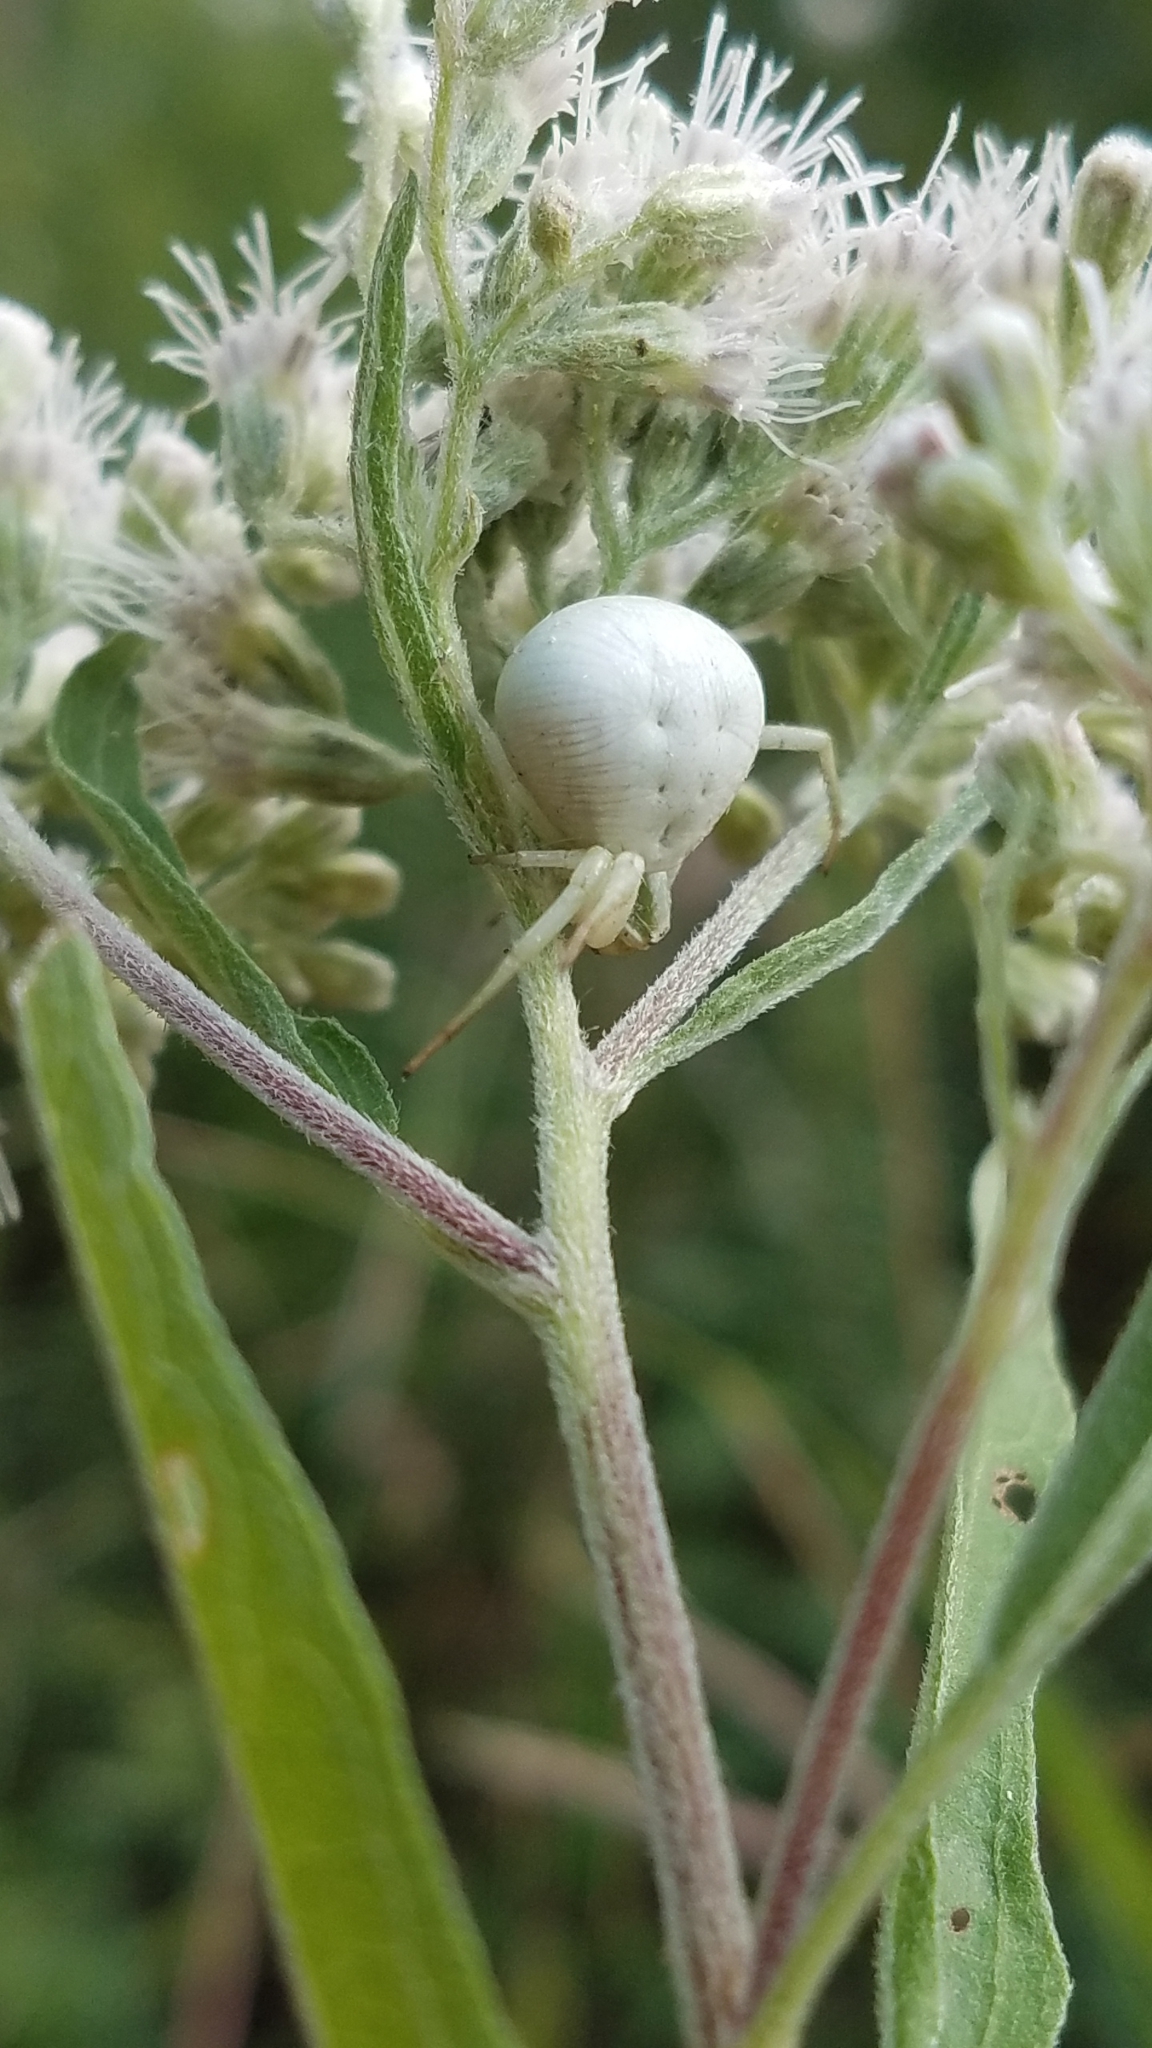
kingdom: Animalia
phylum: Arthropoda
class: Arachnida
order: Araneae
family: Thomisidae
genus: Misumenoides
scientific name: Misumenoides formosipes
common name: White-banded crab spider
